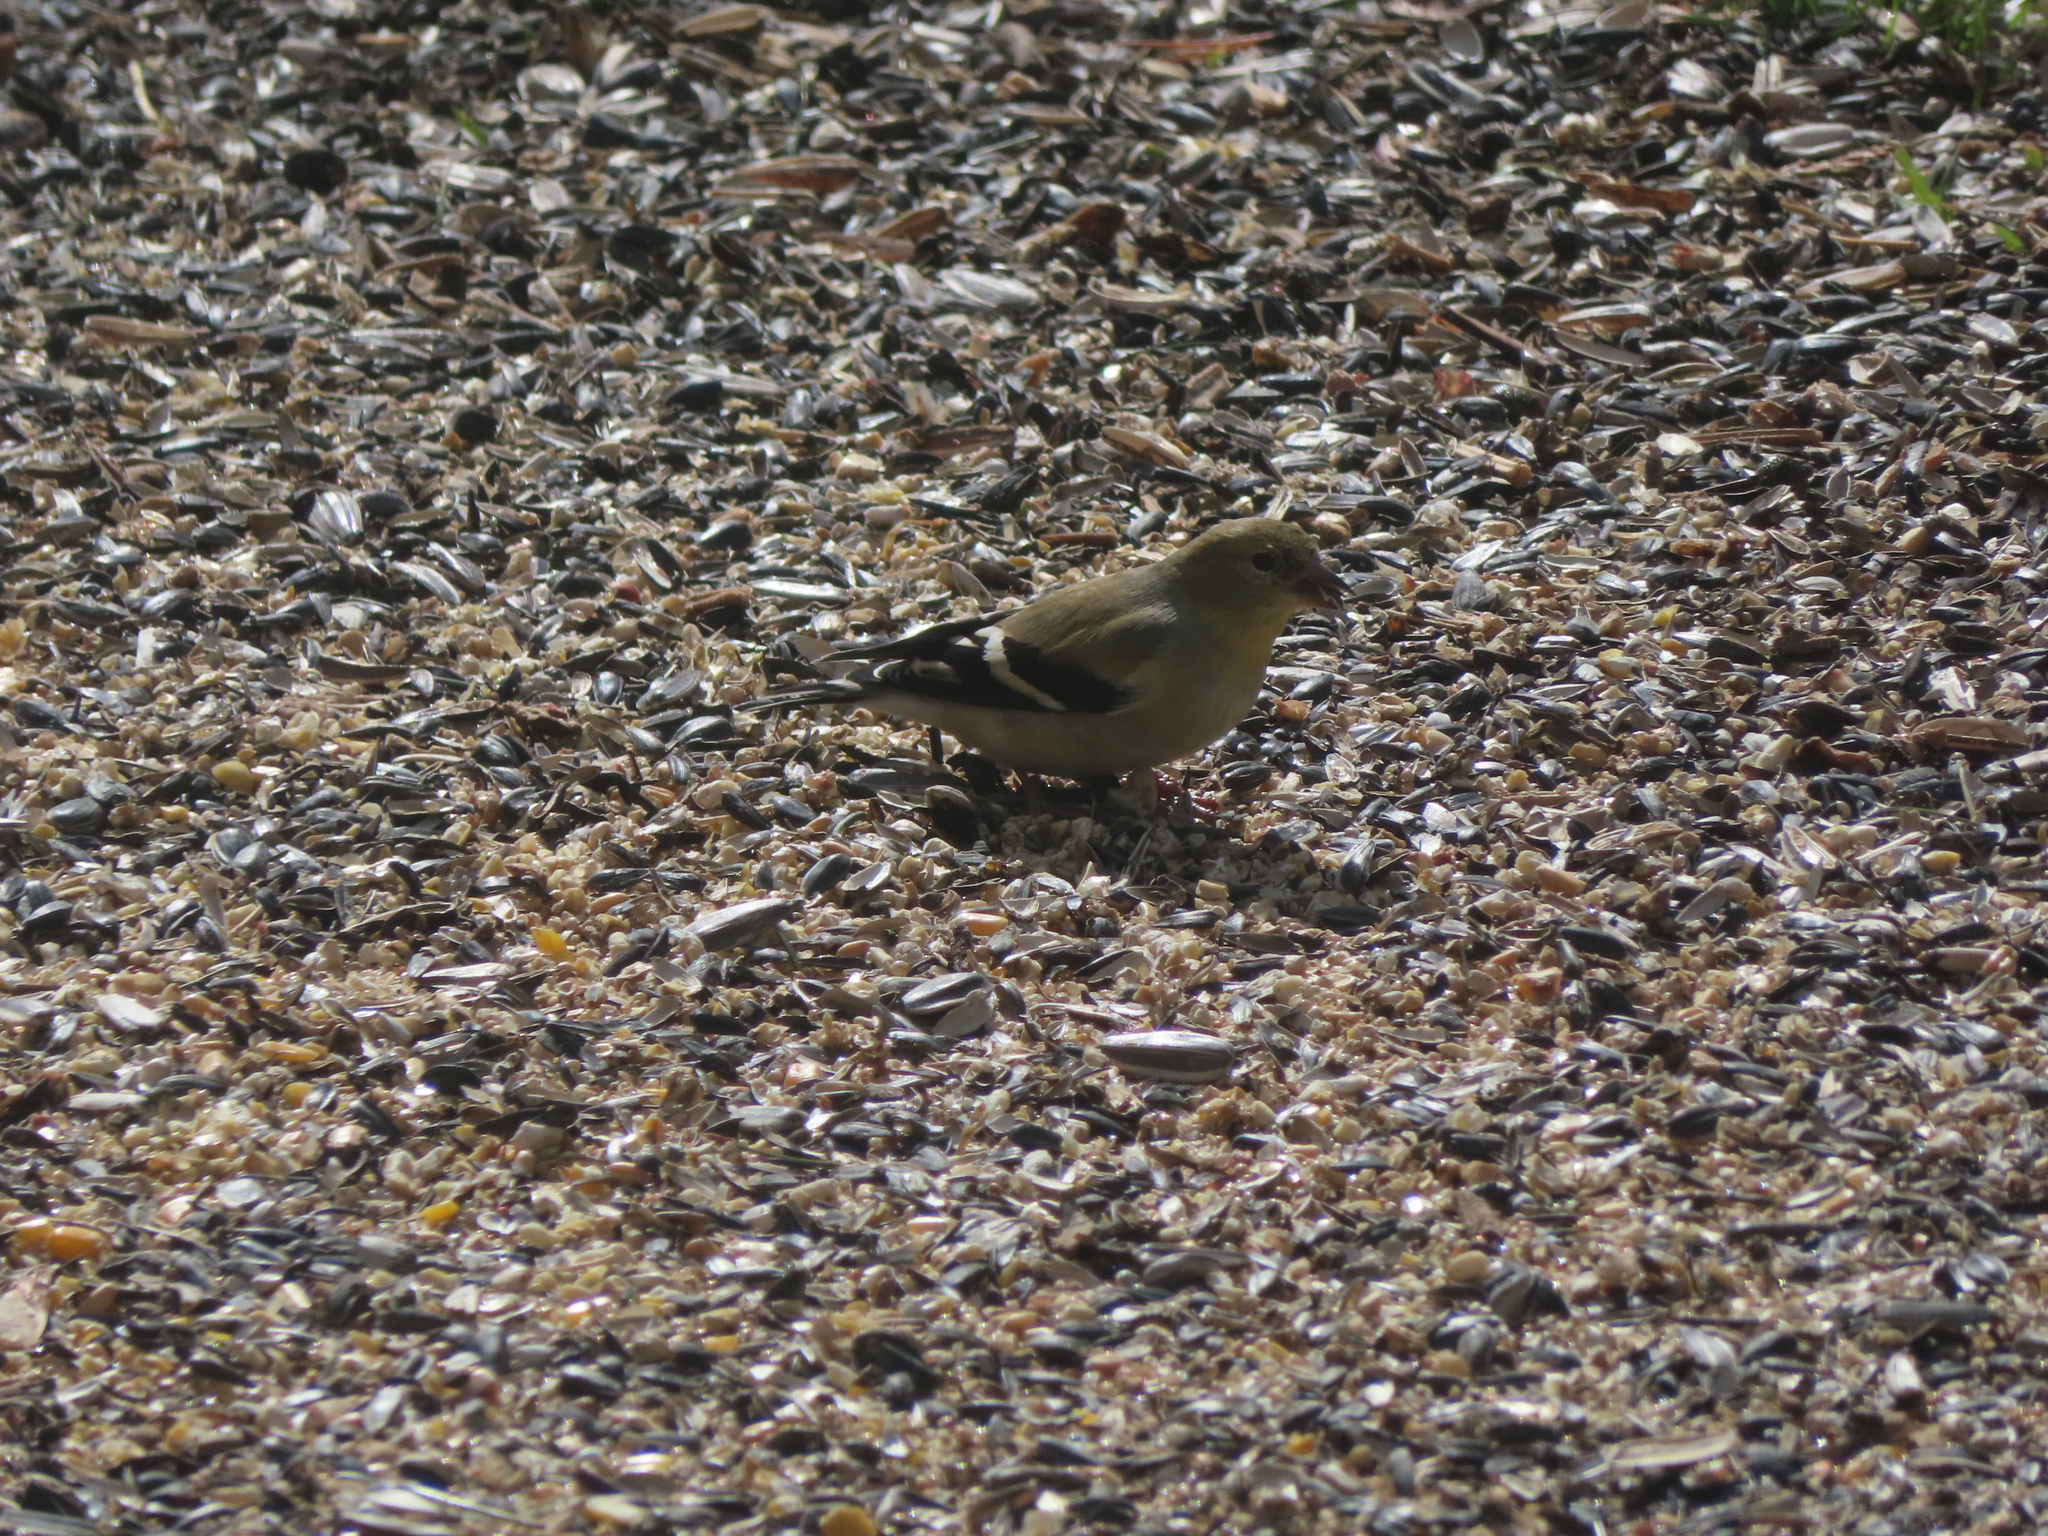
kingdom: Animalia
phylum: Chordata
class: Aves
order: Passeriformes
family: Fringillidae
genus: Spinus
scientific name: Spinus tristis
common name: American goldfinch
